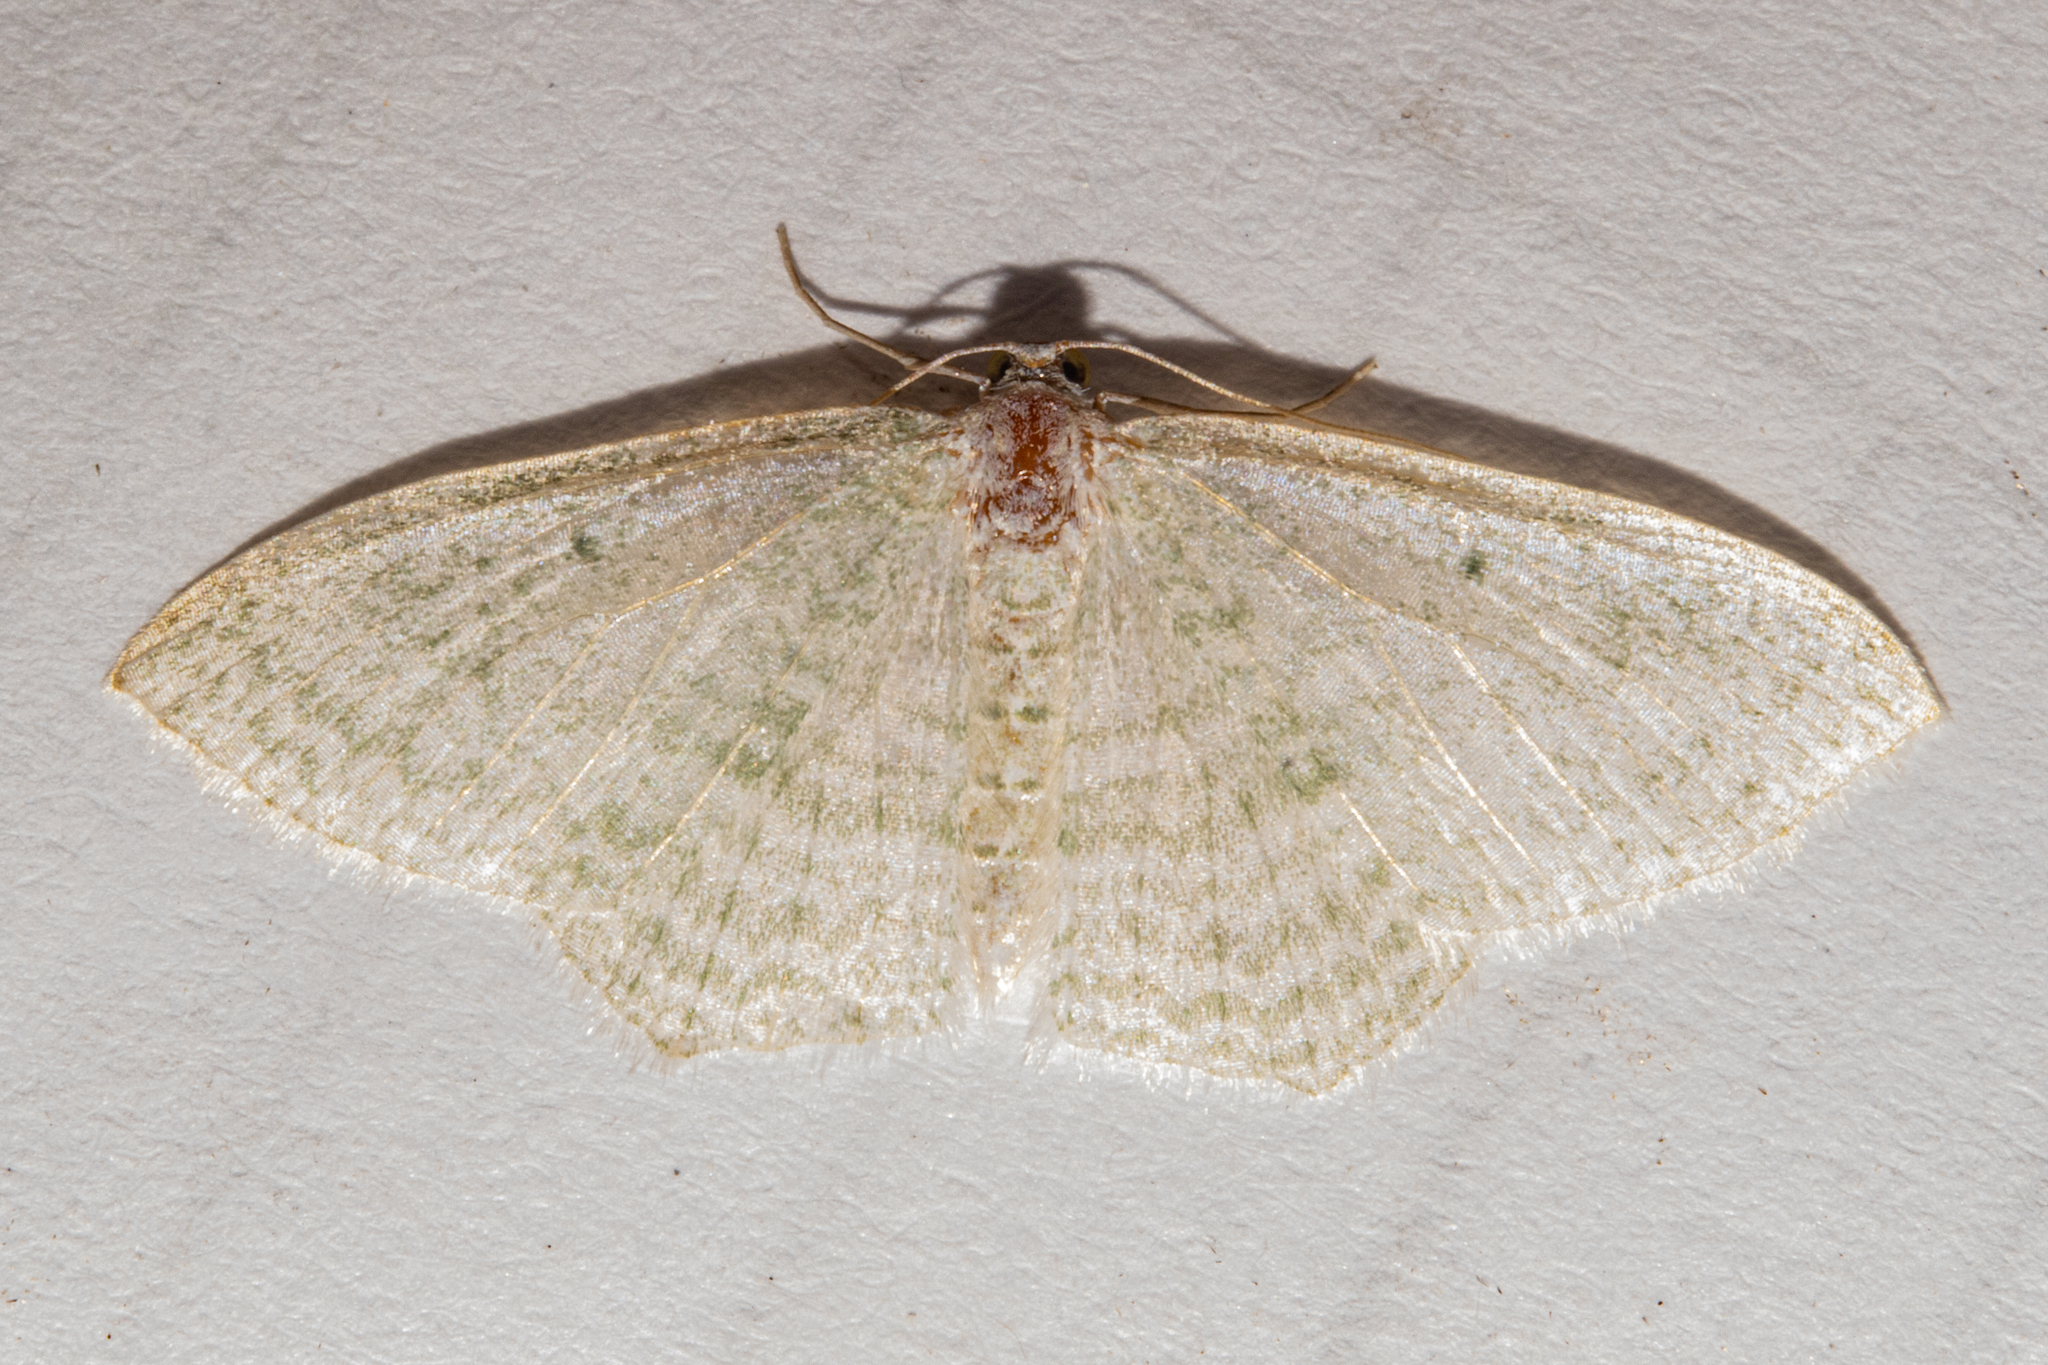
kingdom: Animalia
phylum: Arthropoda
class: Insecta
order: Lepidoptera
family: Geometridae
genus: Poecilasthena
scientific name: Poecilasthena pulchraria
